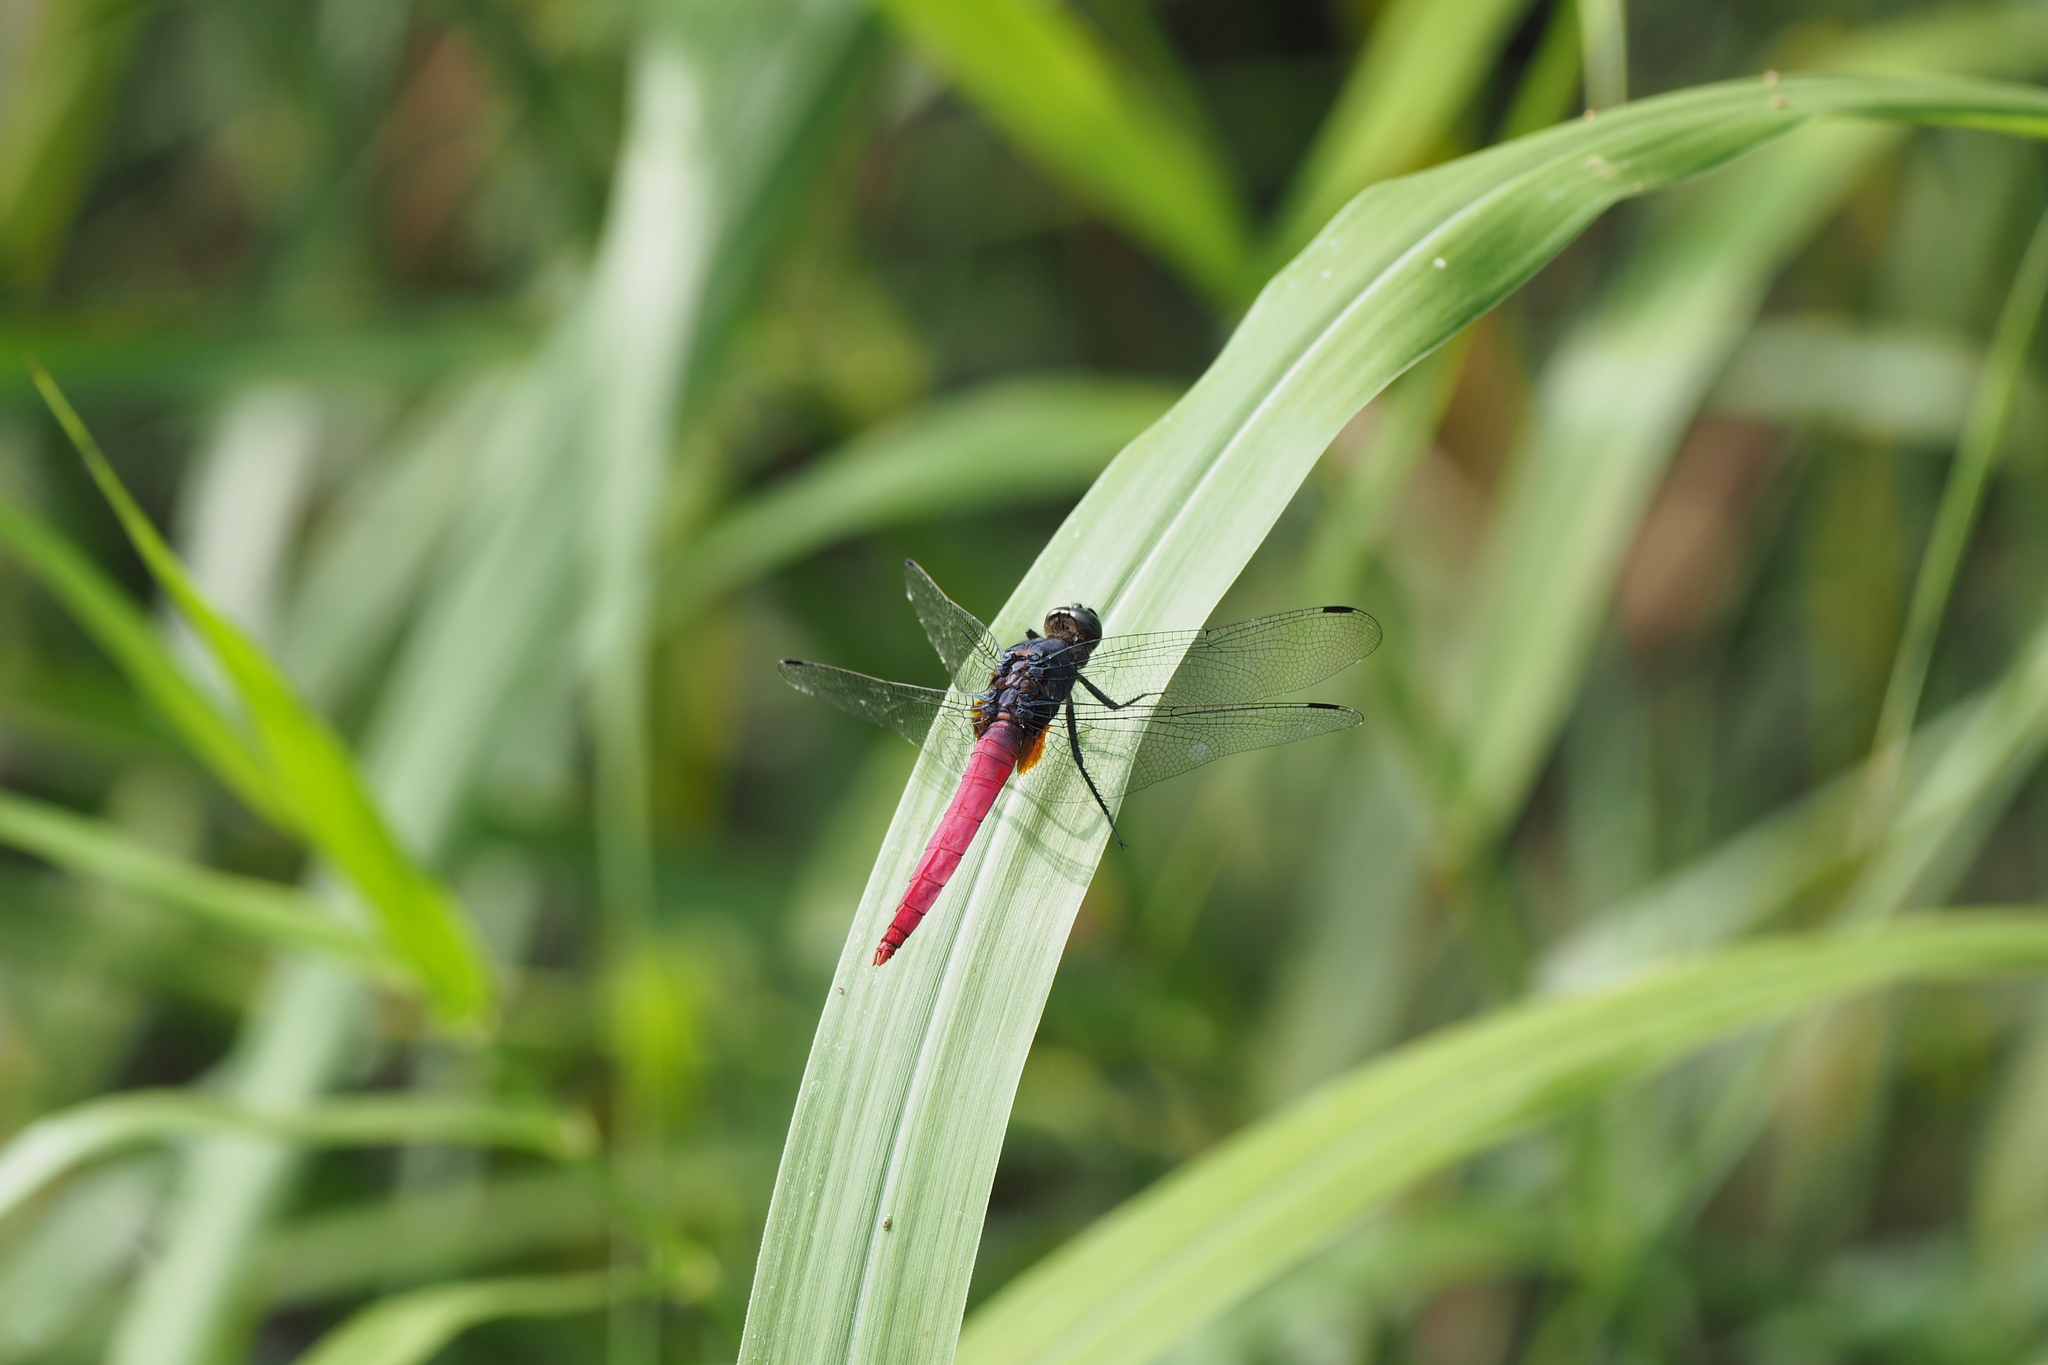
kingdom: Animalia
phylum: Arthropoda
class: Insecta
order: Odonata
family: Libellulidae
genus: Orthetrum
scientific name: Orthetrum pruinosum
